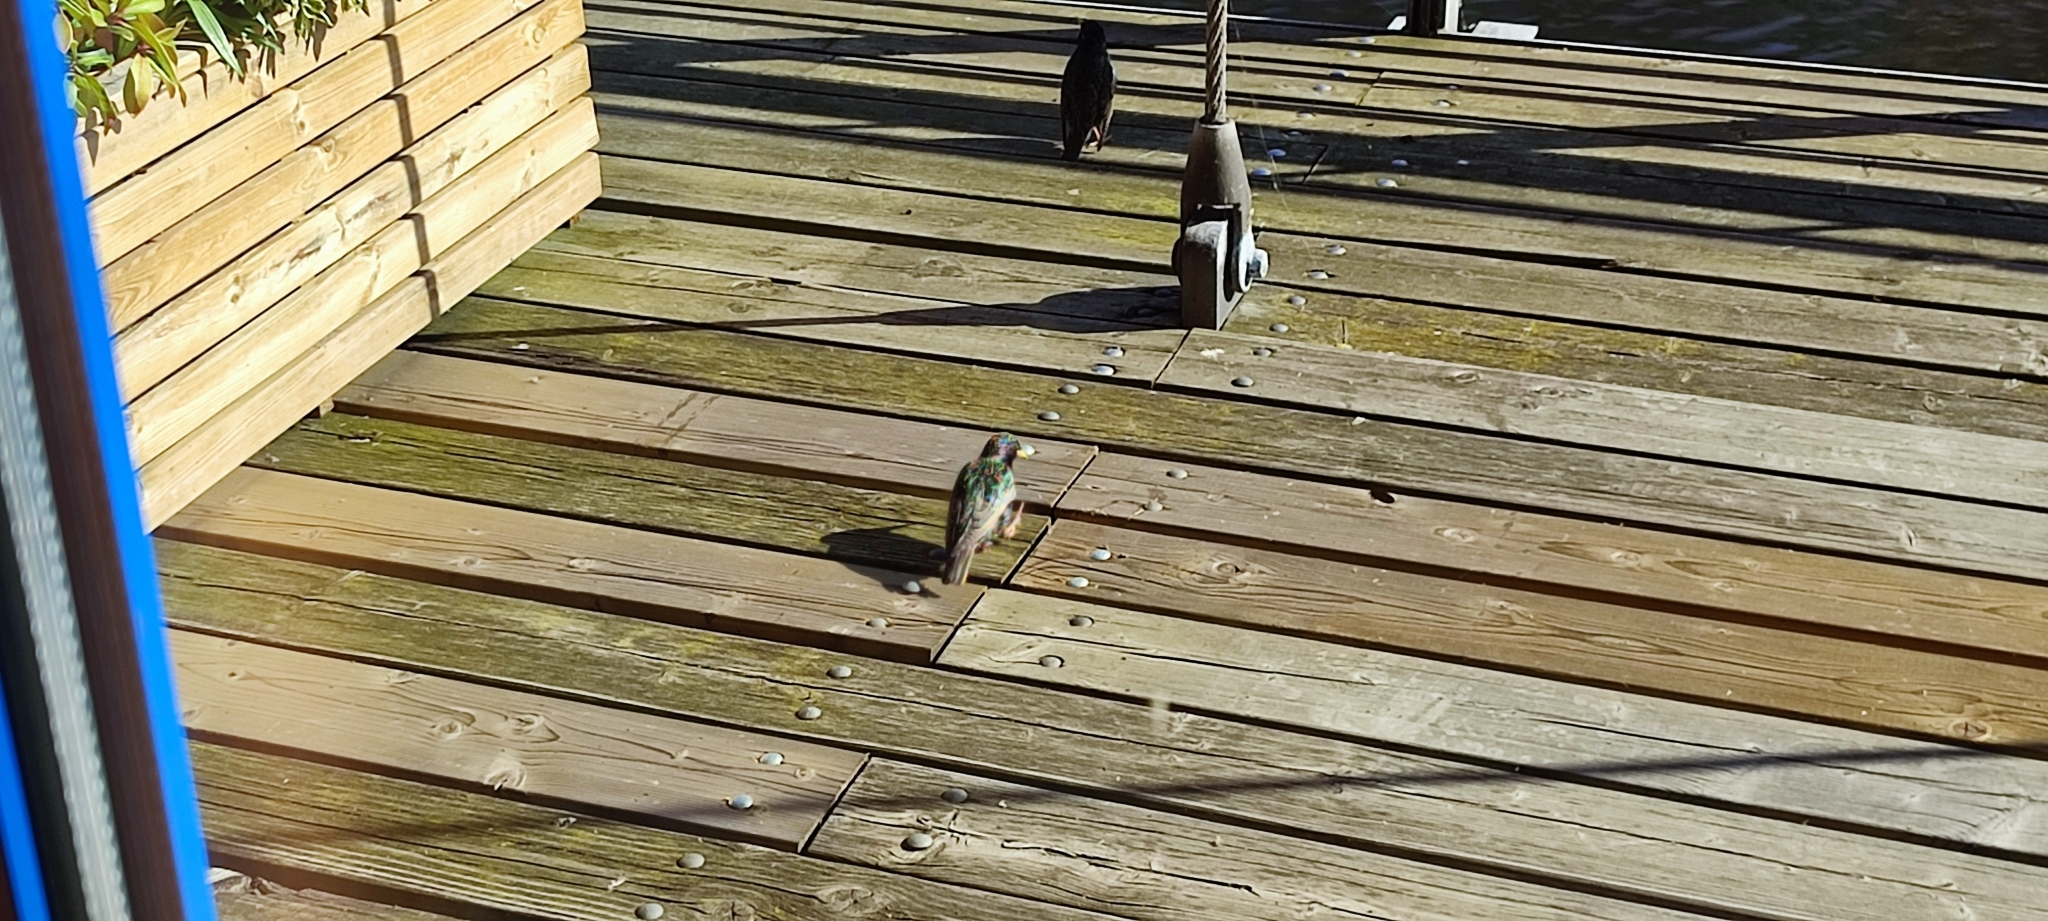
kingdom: Animalia
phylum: Chordata
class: Aves
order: Passeriformes
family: Sturnidae
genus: Sturnus
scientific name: Sturnus vulgaris
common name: Common starling
